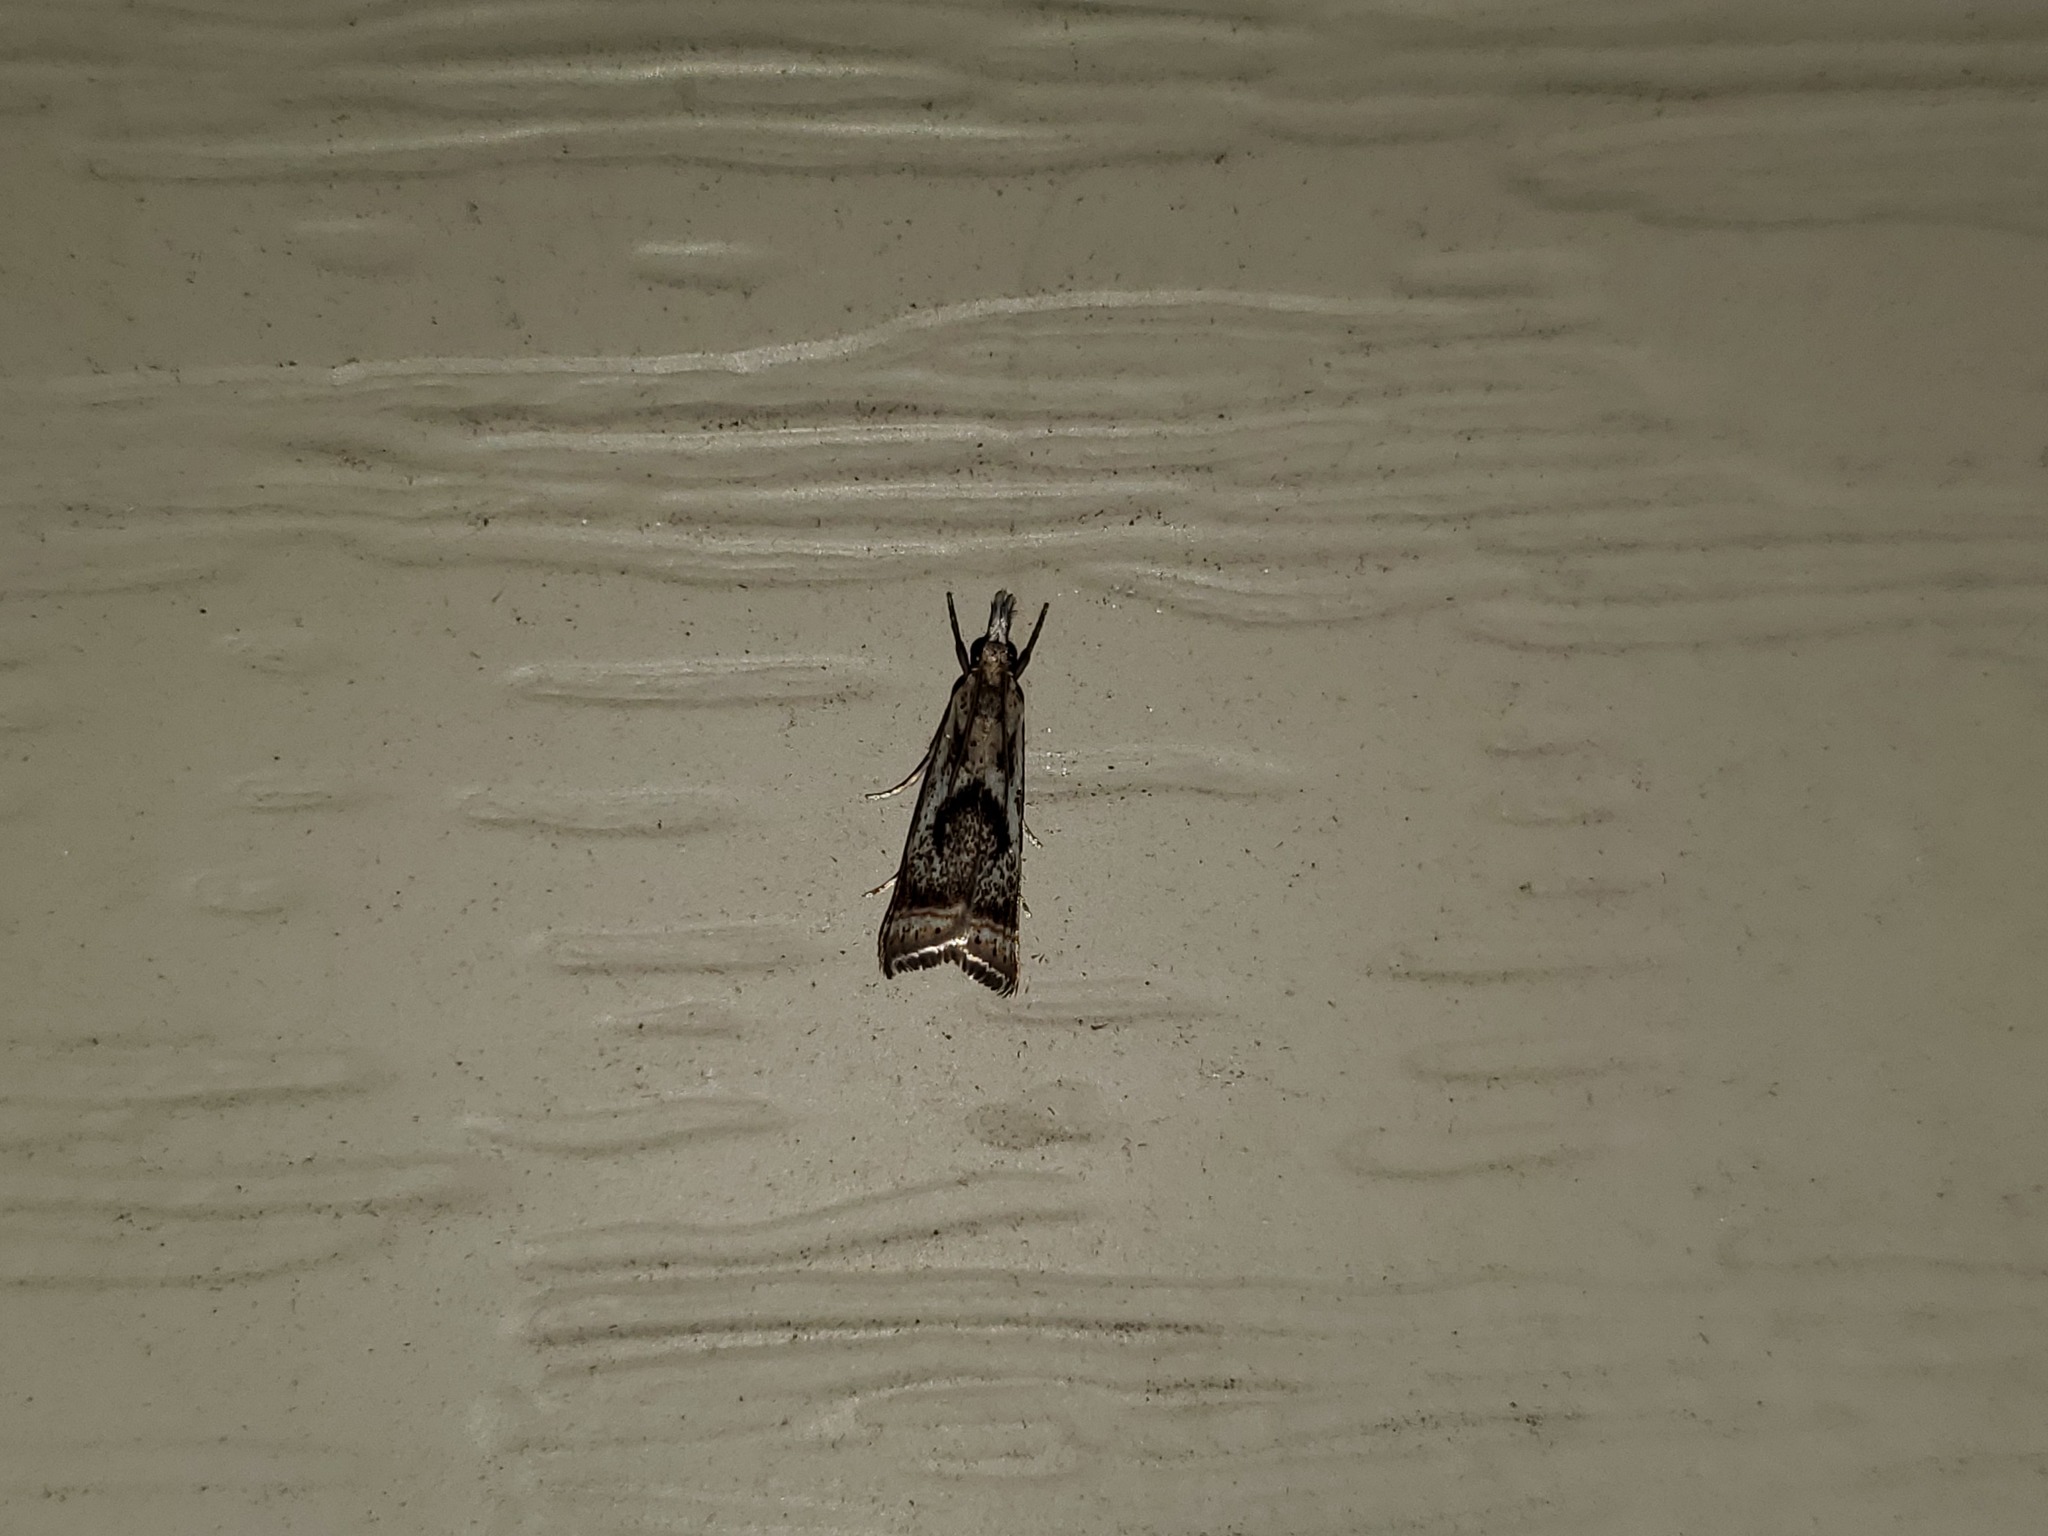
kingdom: Animalia
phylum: Arthropoda
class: Insecta
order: Lepidoptera
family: Crambidae
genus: Microcrambus
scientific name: Microcrambus elegans
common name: Elegant grass-veneer
